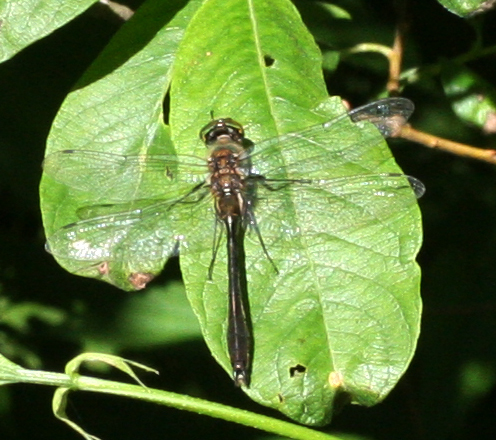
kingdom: Animalia
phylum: Arthropoda
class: Insecta
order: Odonata
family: Corduliidae
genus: Cordulia
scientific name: Cordulia aenea
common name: Downy emerald
